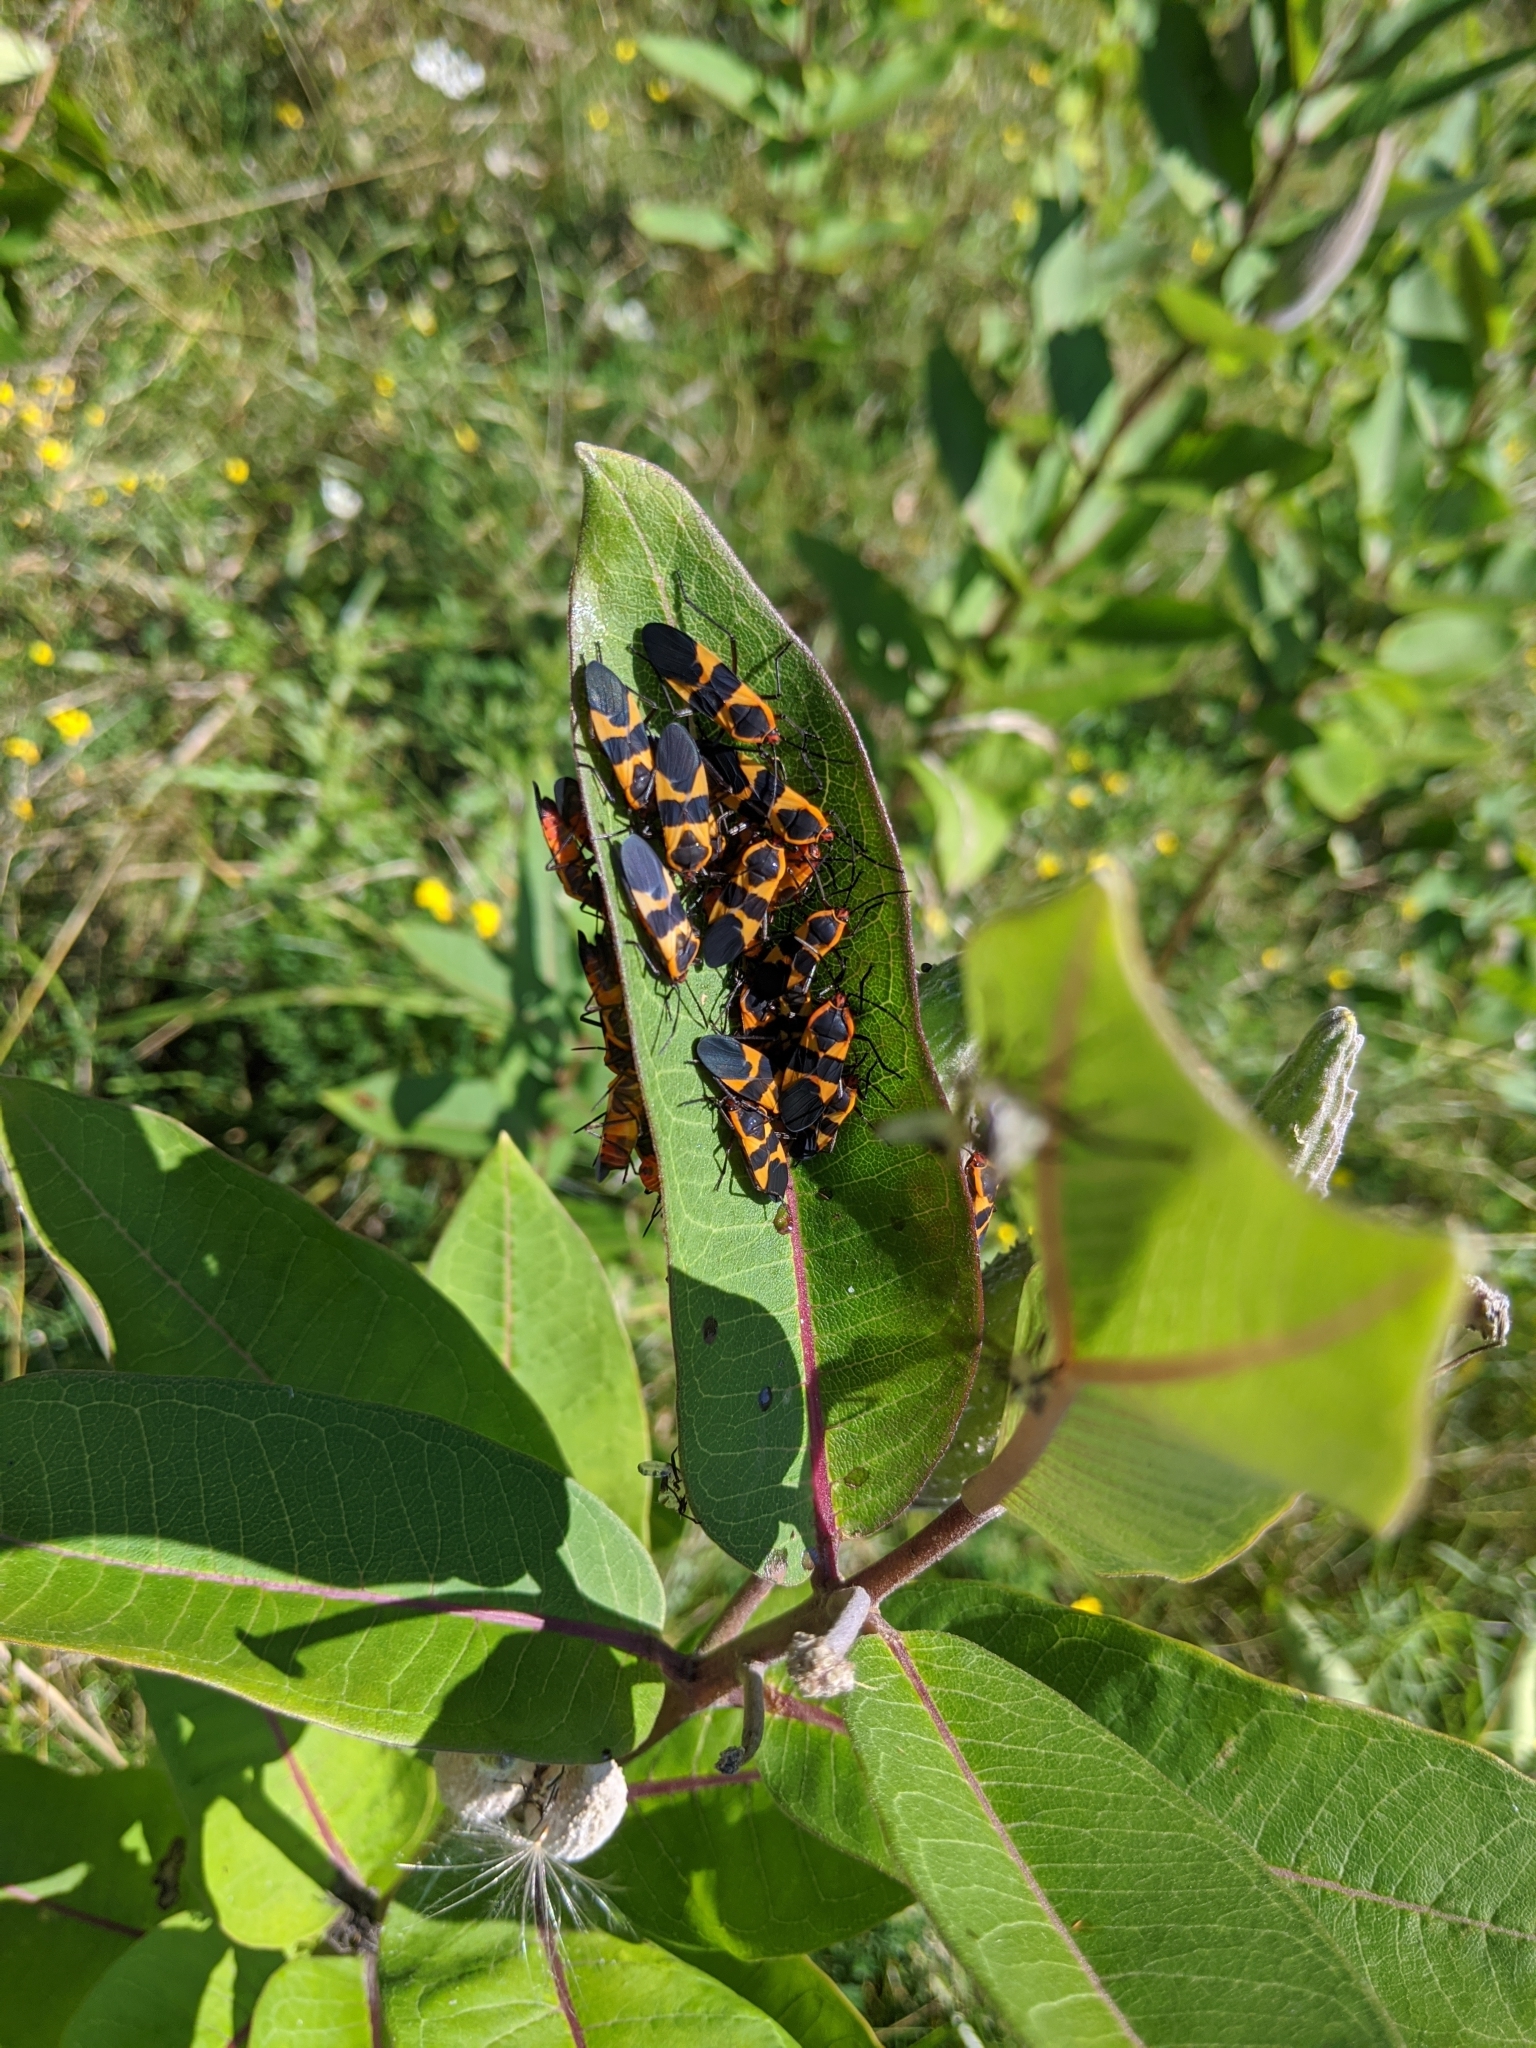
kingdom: Animalia
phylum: Arthropoda
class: Insecta
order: Hemiptera
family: Lygaeidae
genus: Oncopeltus
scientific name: Oncopeltus fasciatus
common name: Large milkweed bug
